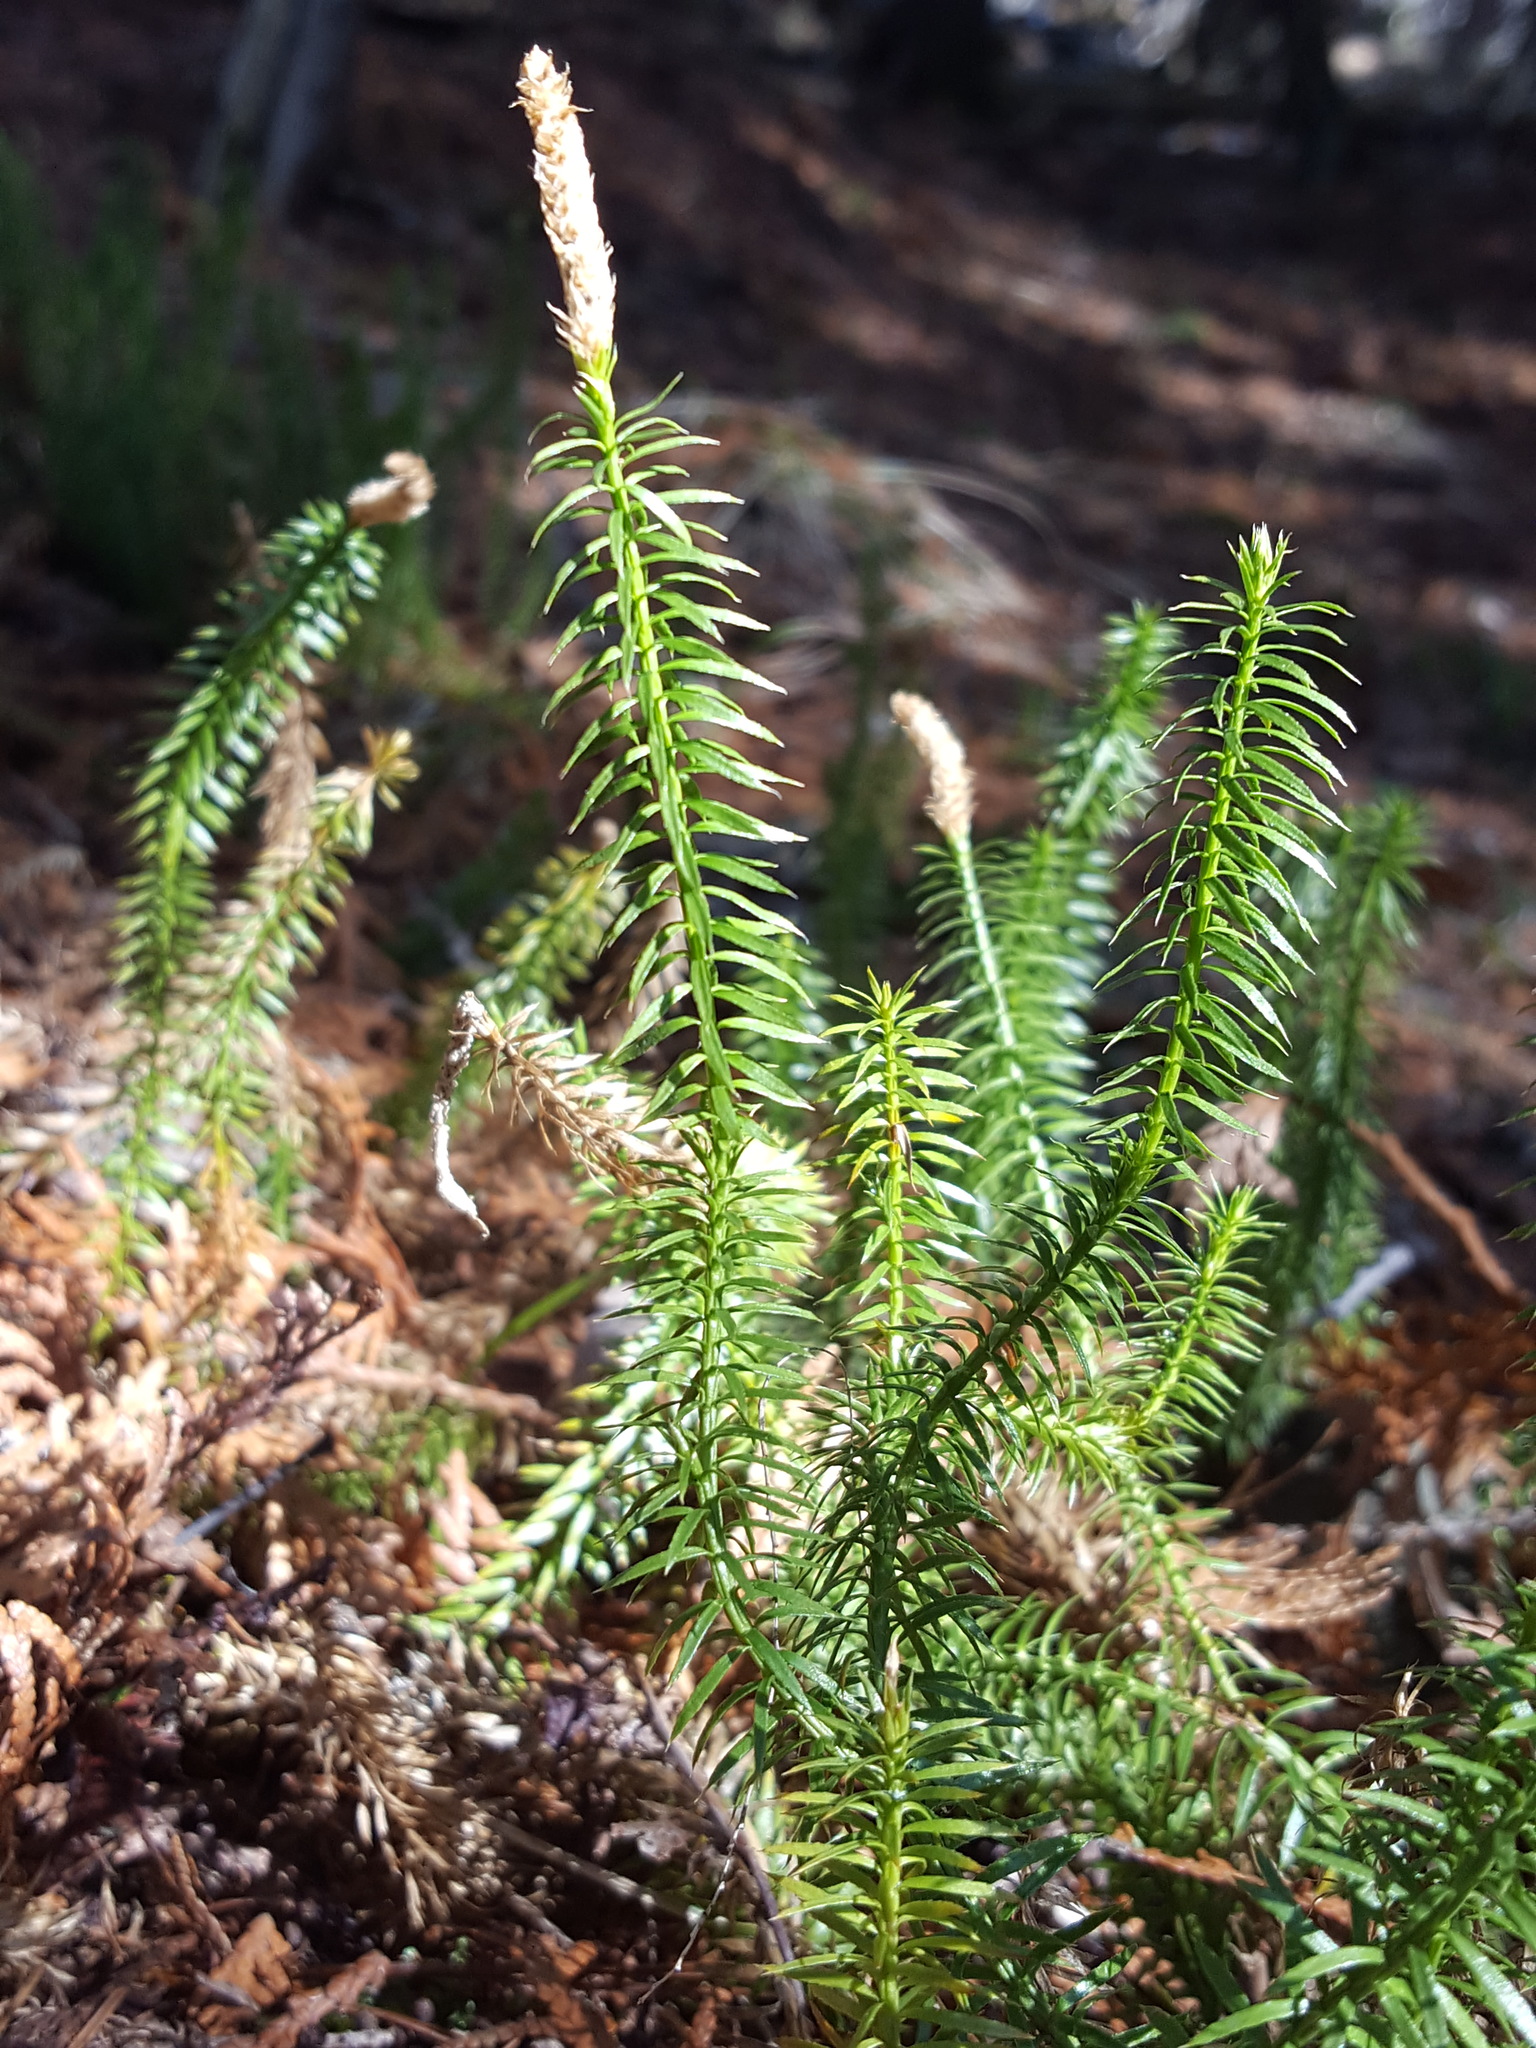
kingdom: Plantae
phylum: Tracheophyta
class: Lycopodiopsida
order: Lycopodiales
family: Lycopodiaceae
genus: Spinulum
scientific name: Spinulum annotinum
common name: Interrupted club-moss
